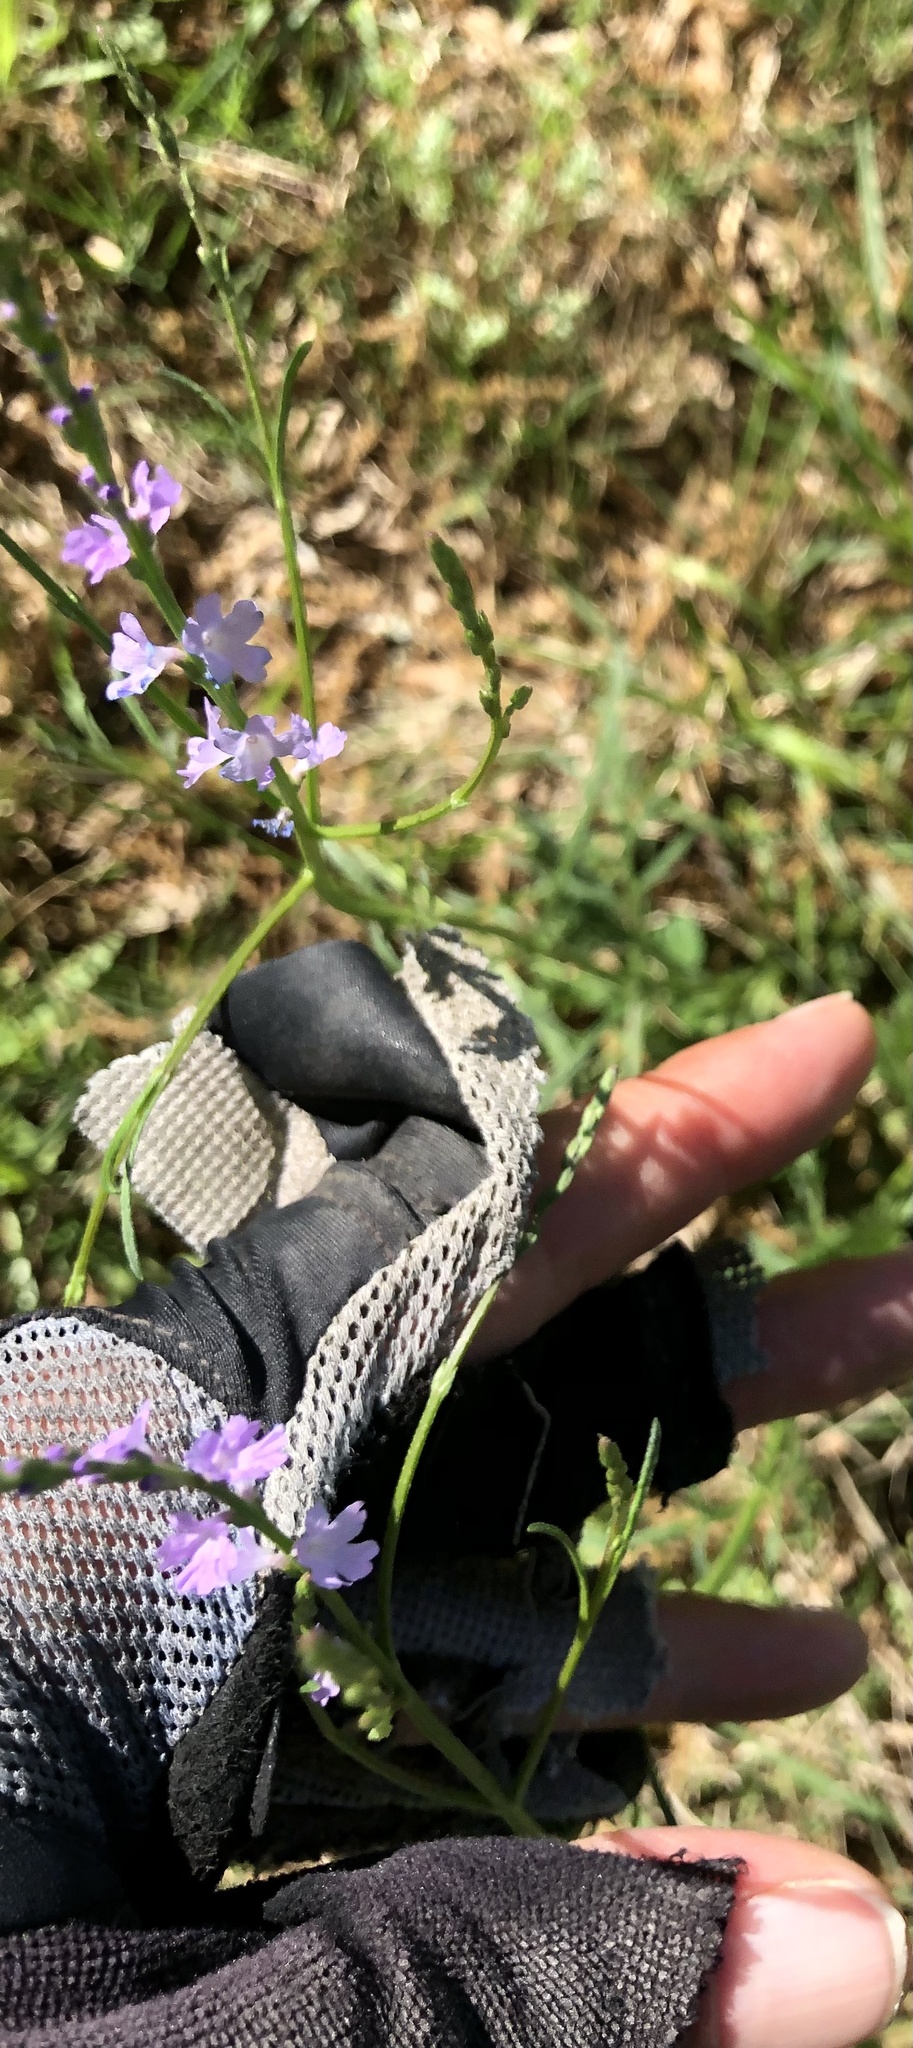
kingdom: Plantae
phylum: Tracheophyta
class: Magnoliopsida
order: Lamiales
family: Verbenaceae
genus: Verbena
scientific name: Verbena halei
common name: Texas vervain
